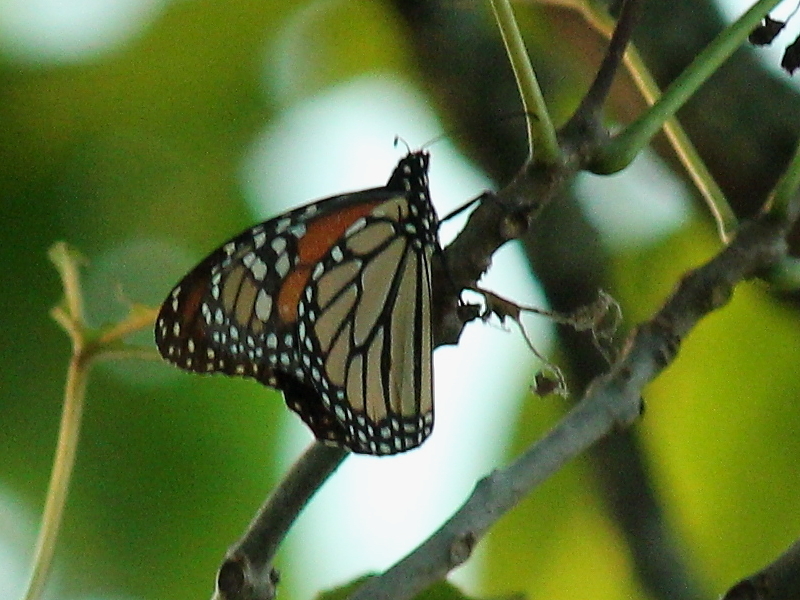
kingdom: Animalia
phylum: Arthropoda
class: Insecta
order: Lepidoptera
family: Nymphalidae
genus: Danaus
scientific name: Danaus plexippus
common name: Monarch
